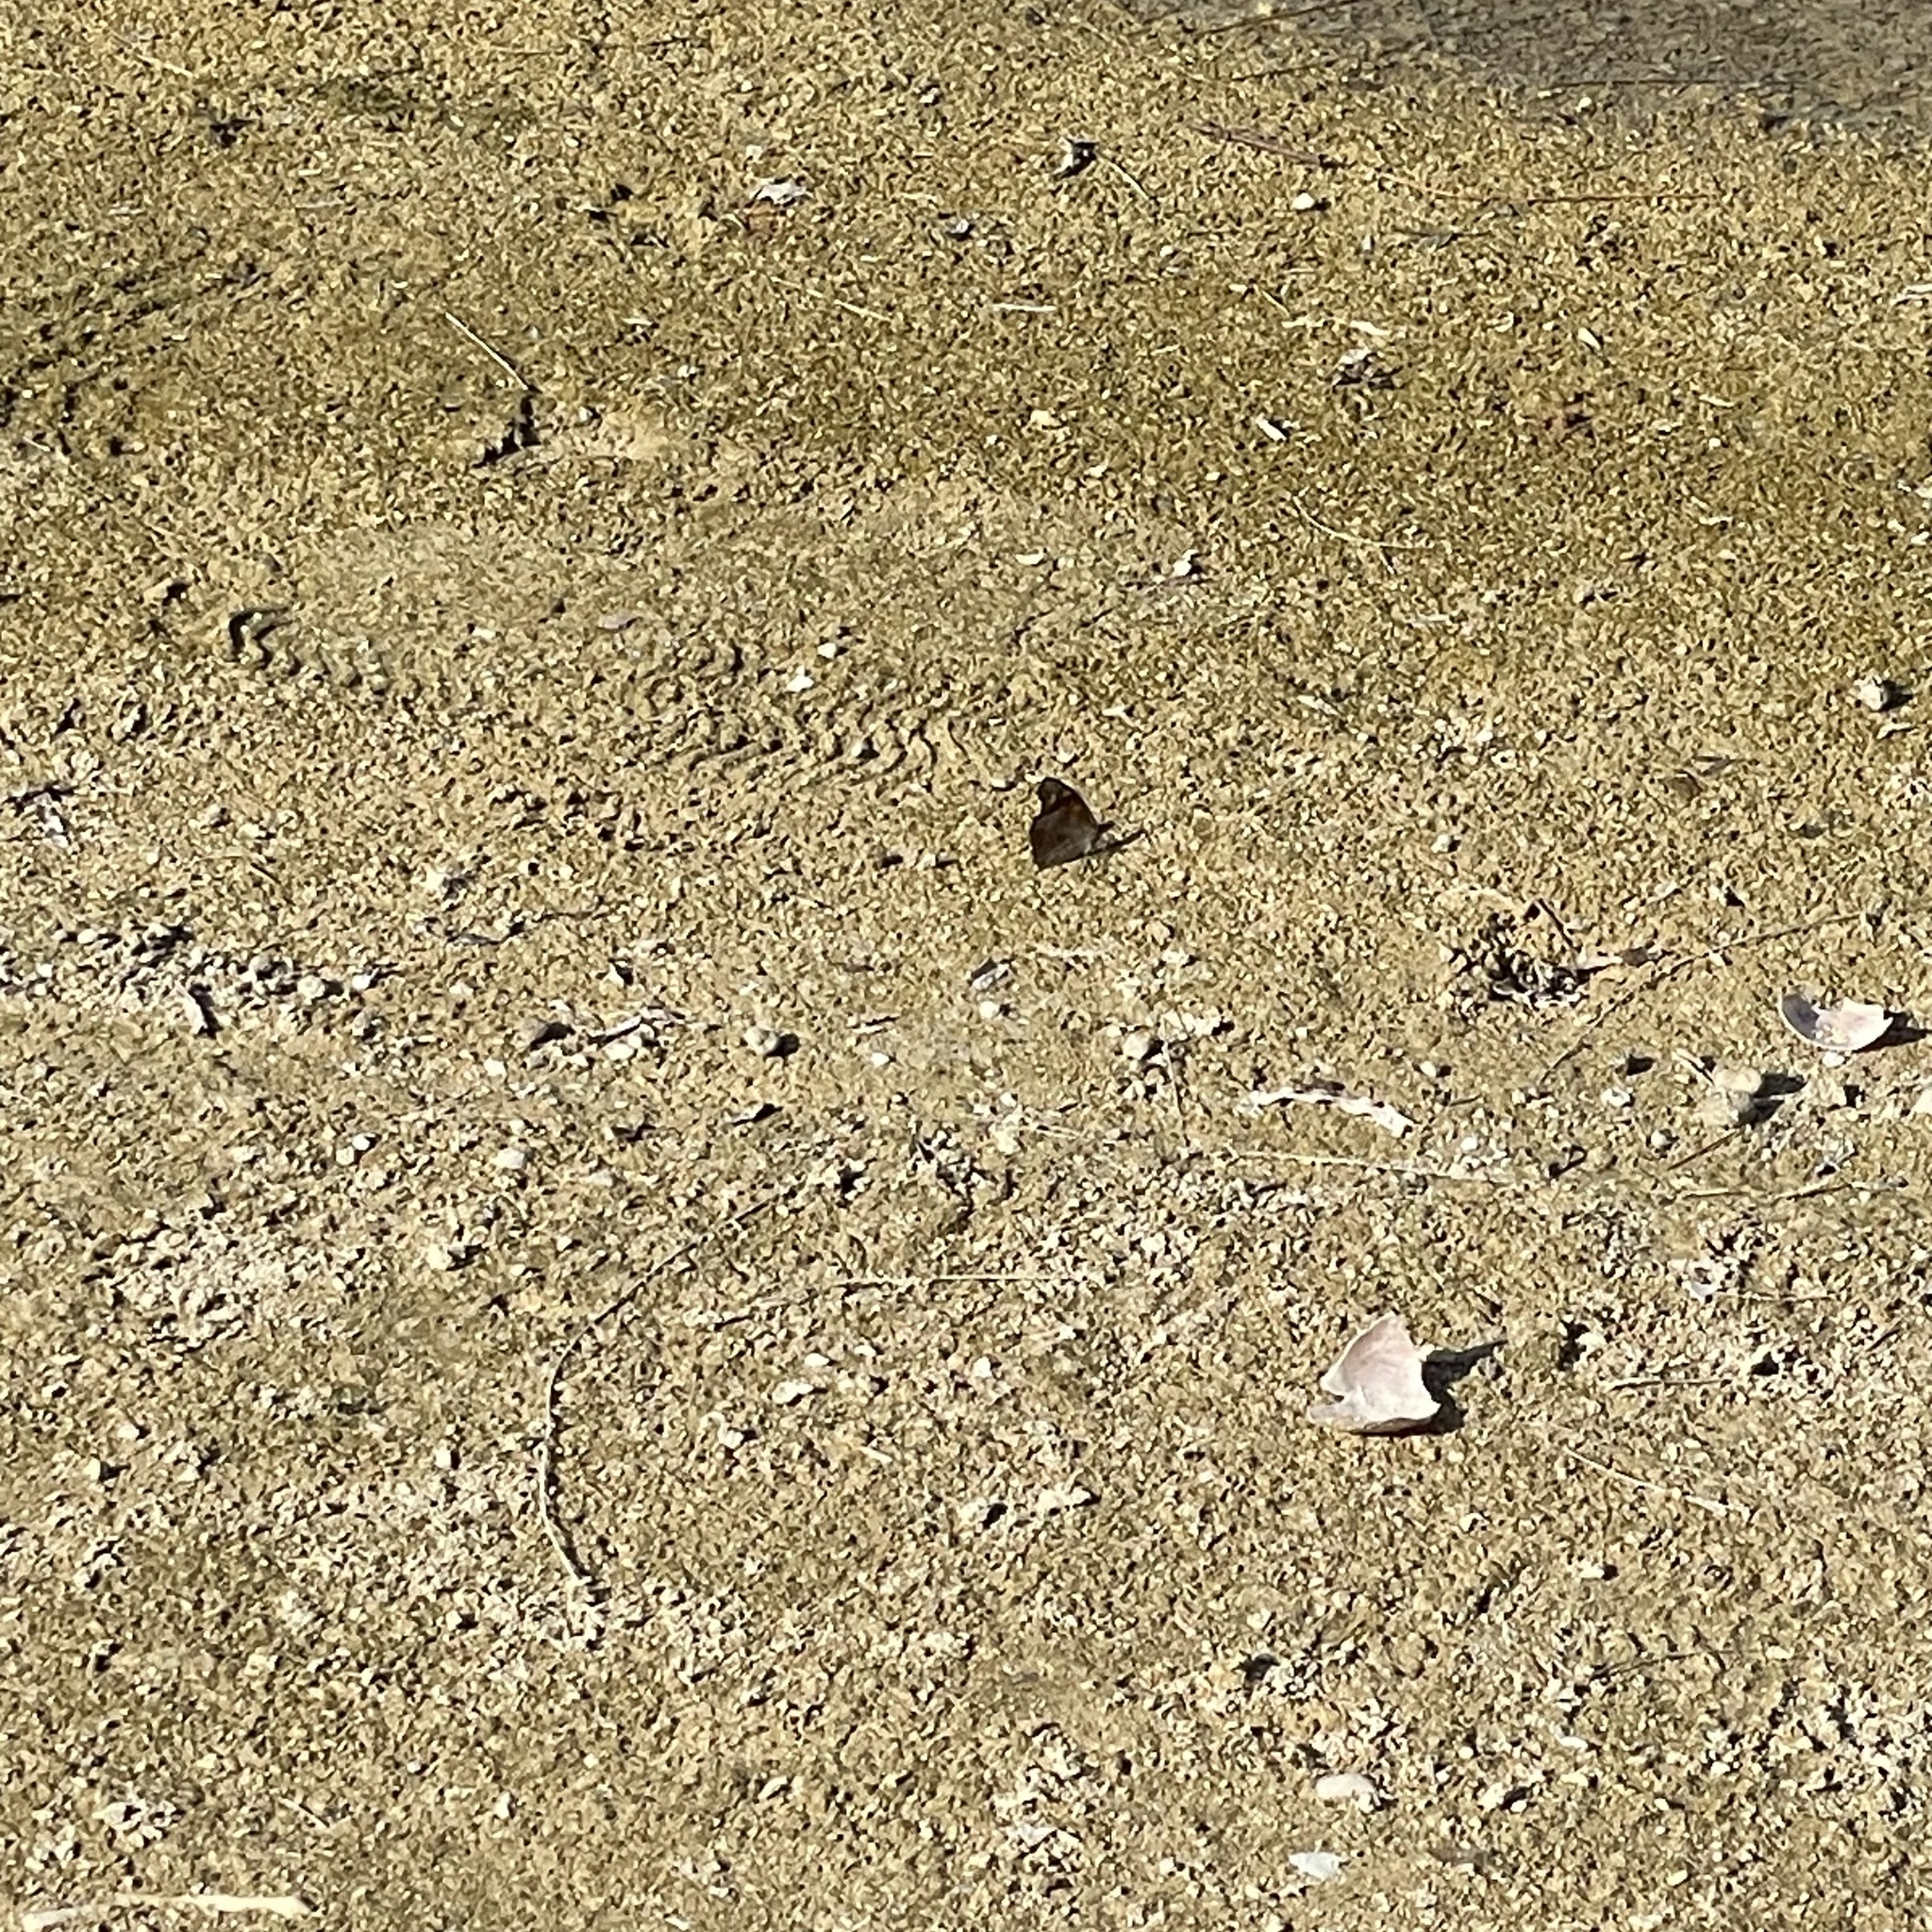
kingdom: Animalia
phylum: Arthropoda
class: Insecta
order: Lepidoptera
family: Nymphalidae
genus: Libythea
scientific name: Libythea lepita
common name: Common beak
